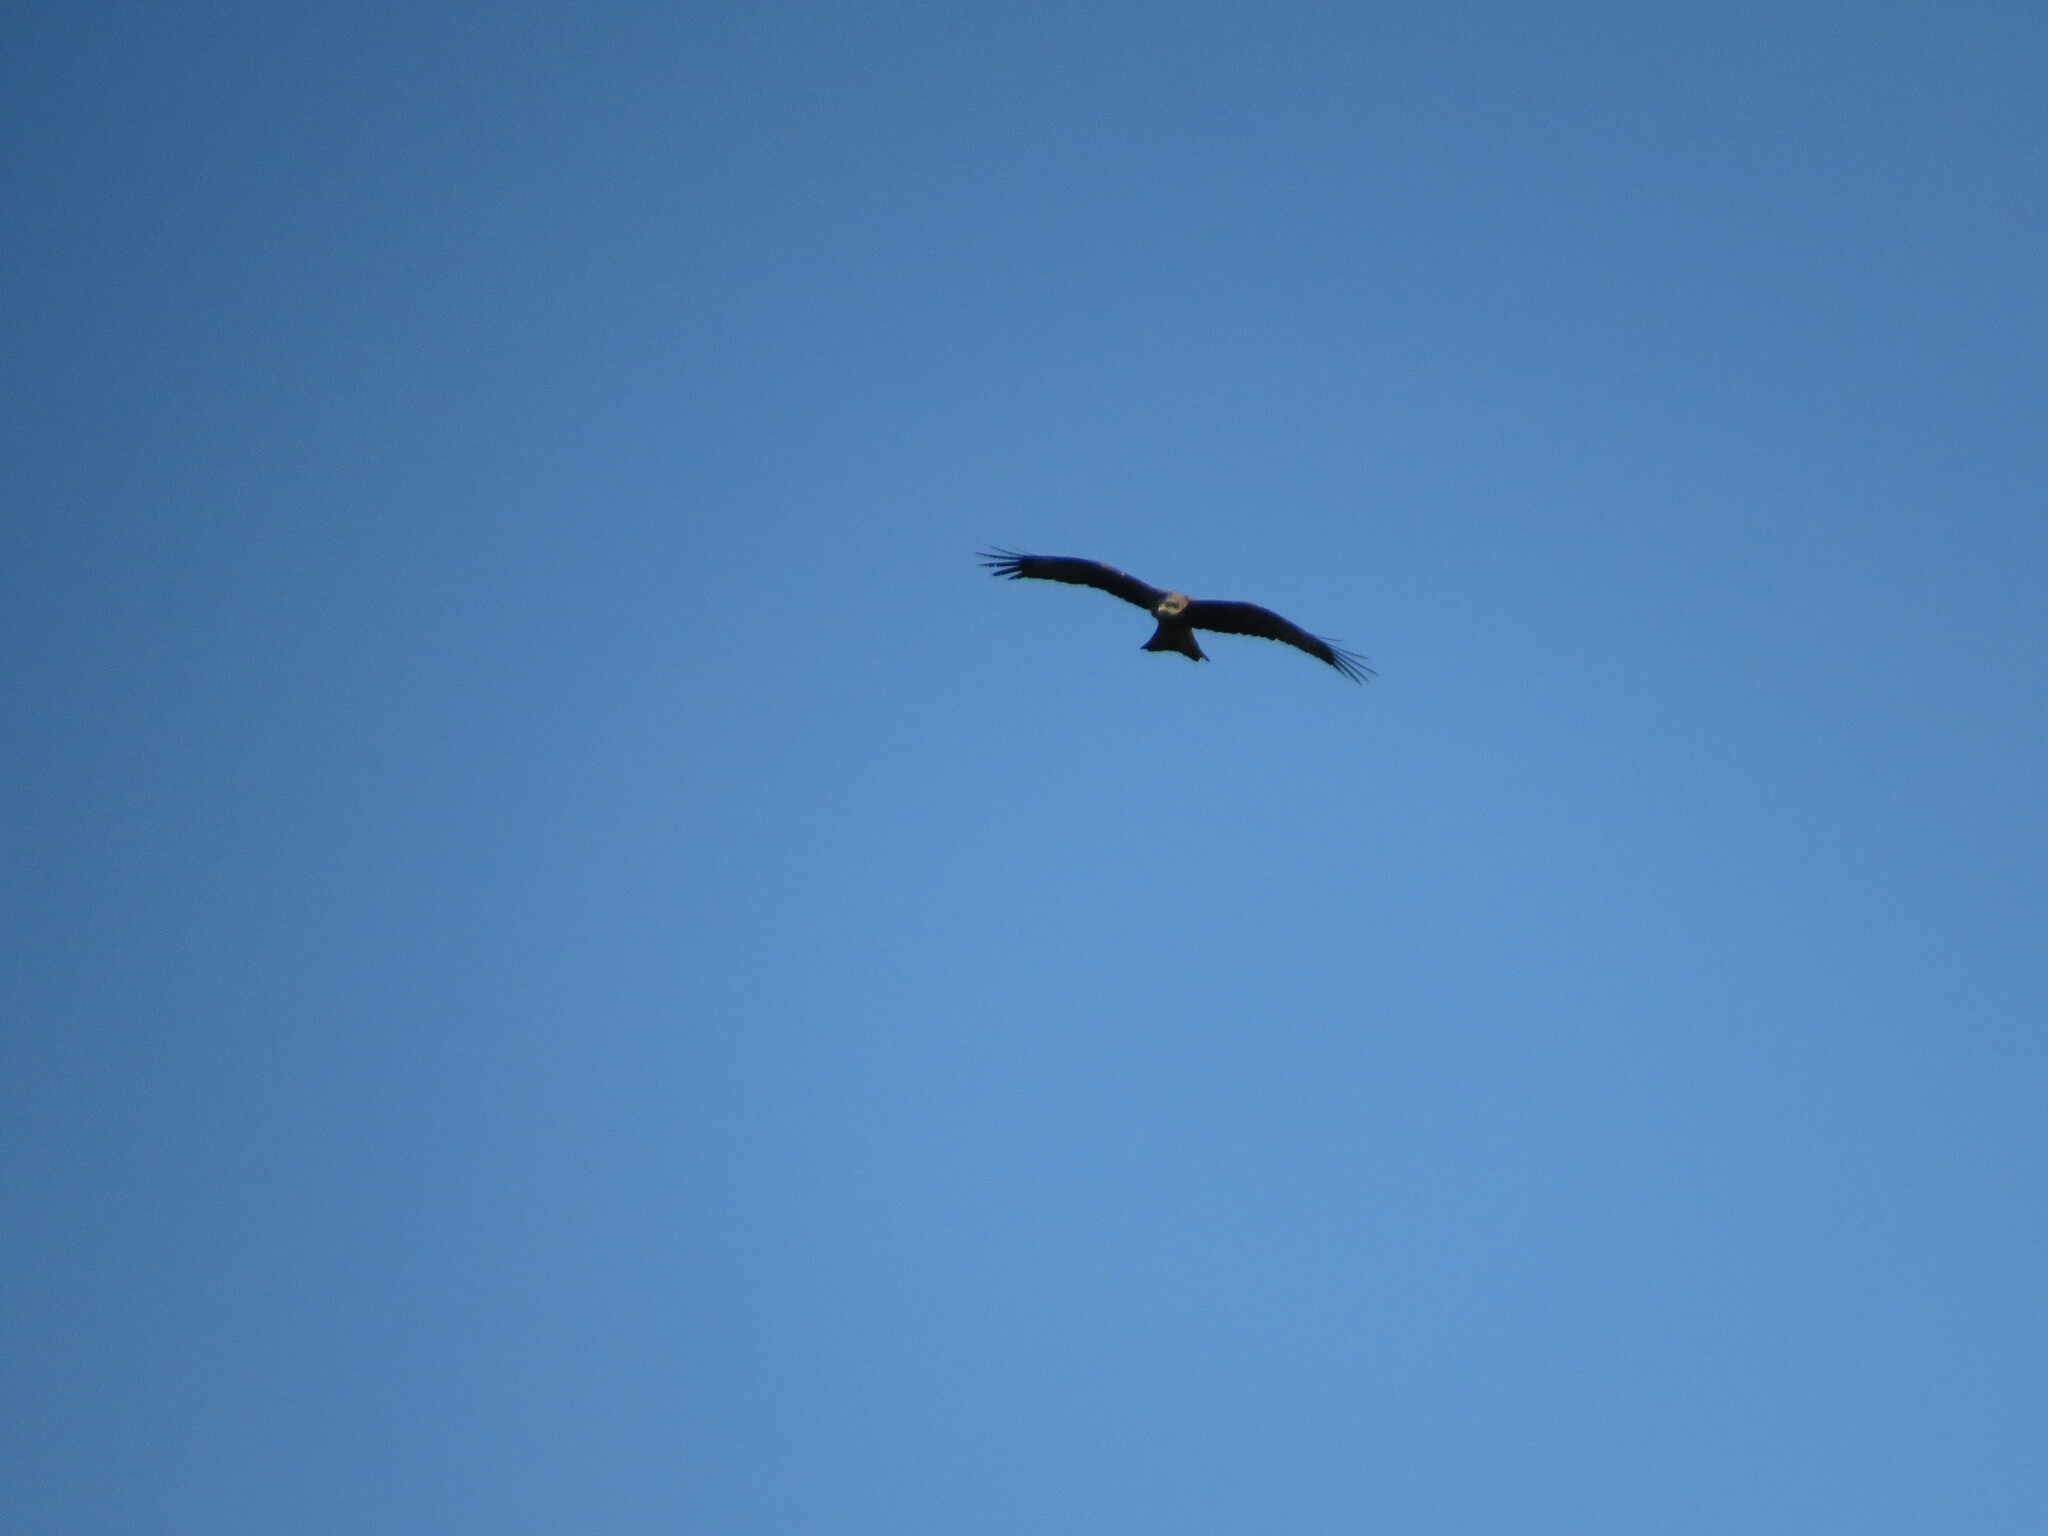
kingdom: Animalia
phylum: Chordata
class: Aves
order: Accipitriformes
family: Accipitridae
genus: Milvus
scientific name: Milvus migrans
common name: Black kite
